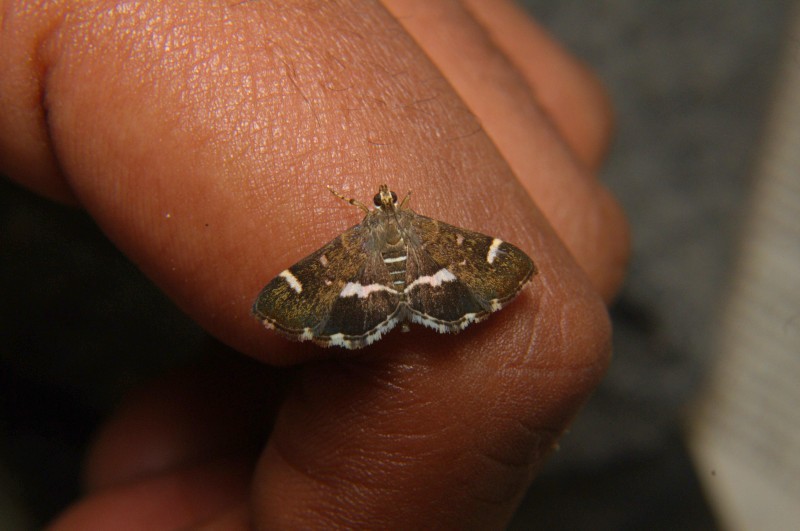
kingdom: Animalia
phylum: Arthropoda
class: Insecta
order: Lepidoptera
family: Crambidae
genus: Hymenia
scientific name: Hymenia perspectalis
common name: Spotted beet webworm
